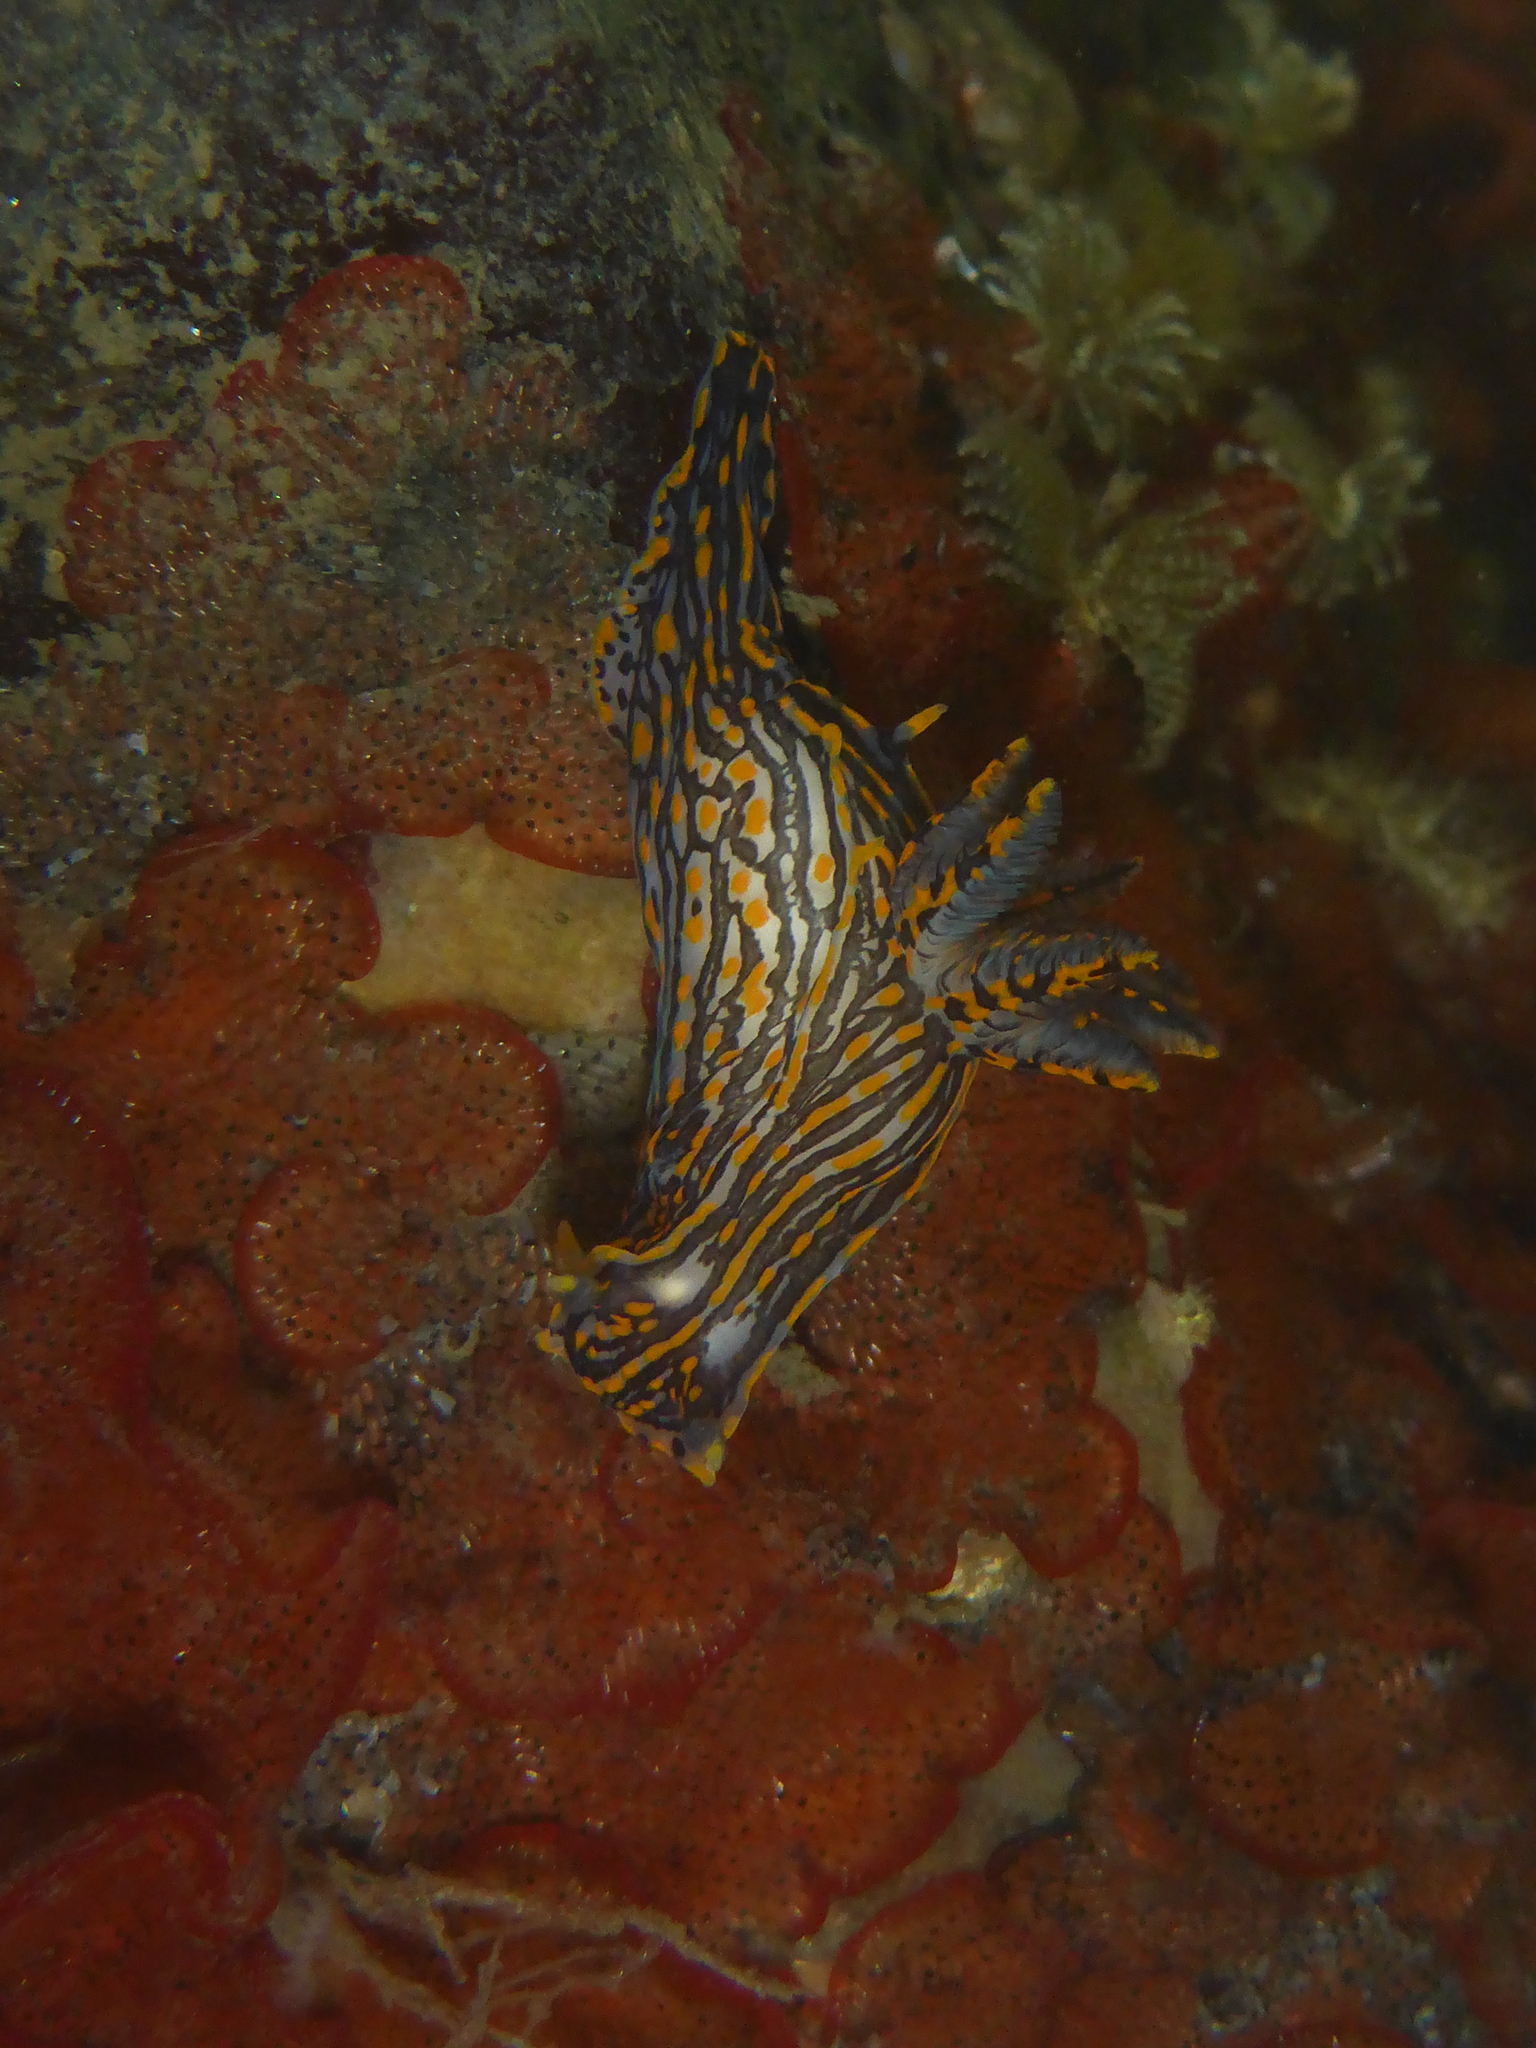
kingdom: Animalia
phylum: Mollusca
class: Gastropoda
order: Nudibranchia
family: Polyceridae
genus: Polycera
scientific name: Polycera atra
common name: Orange-spike polycera
